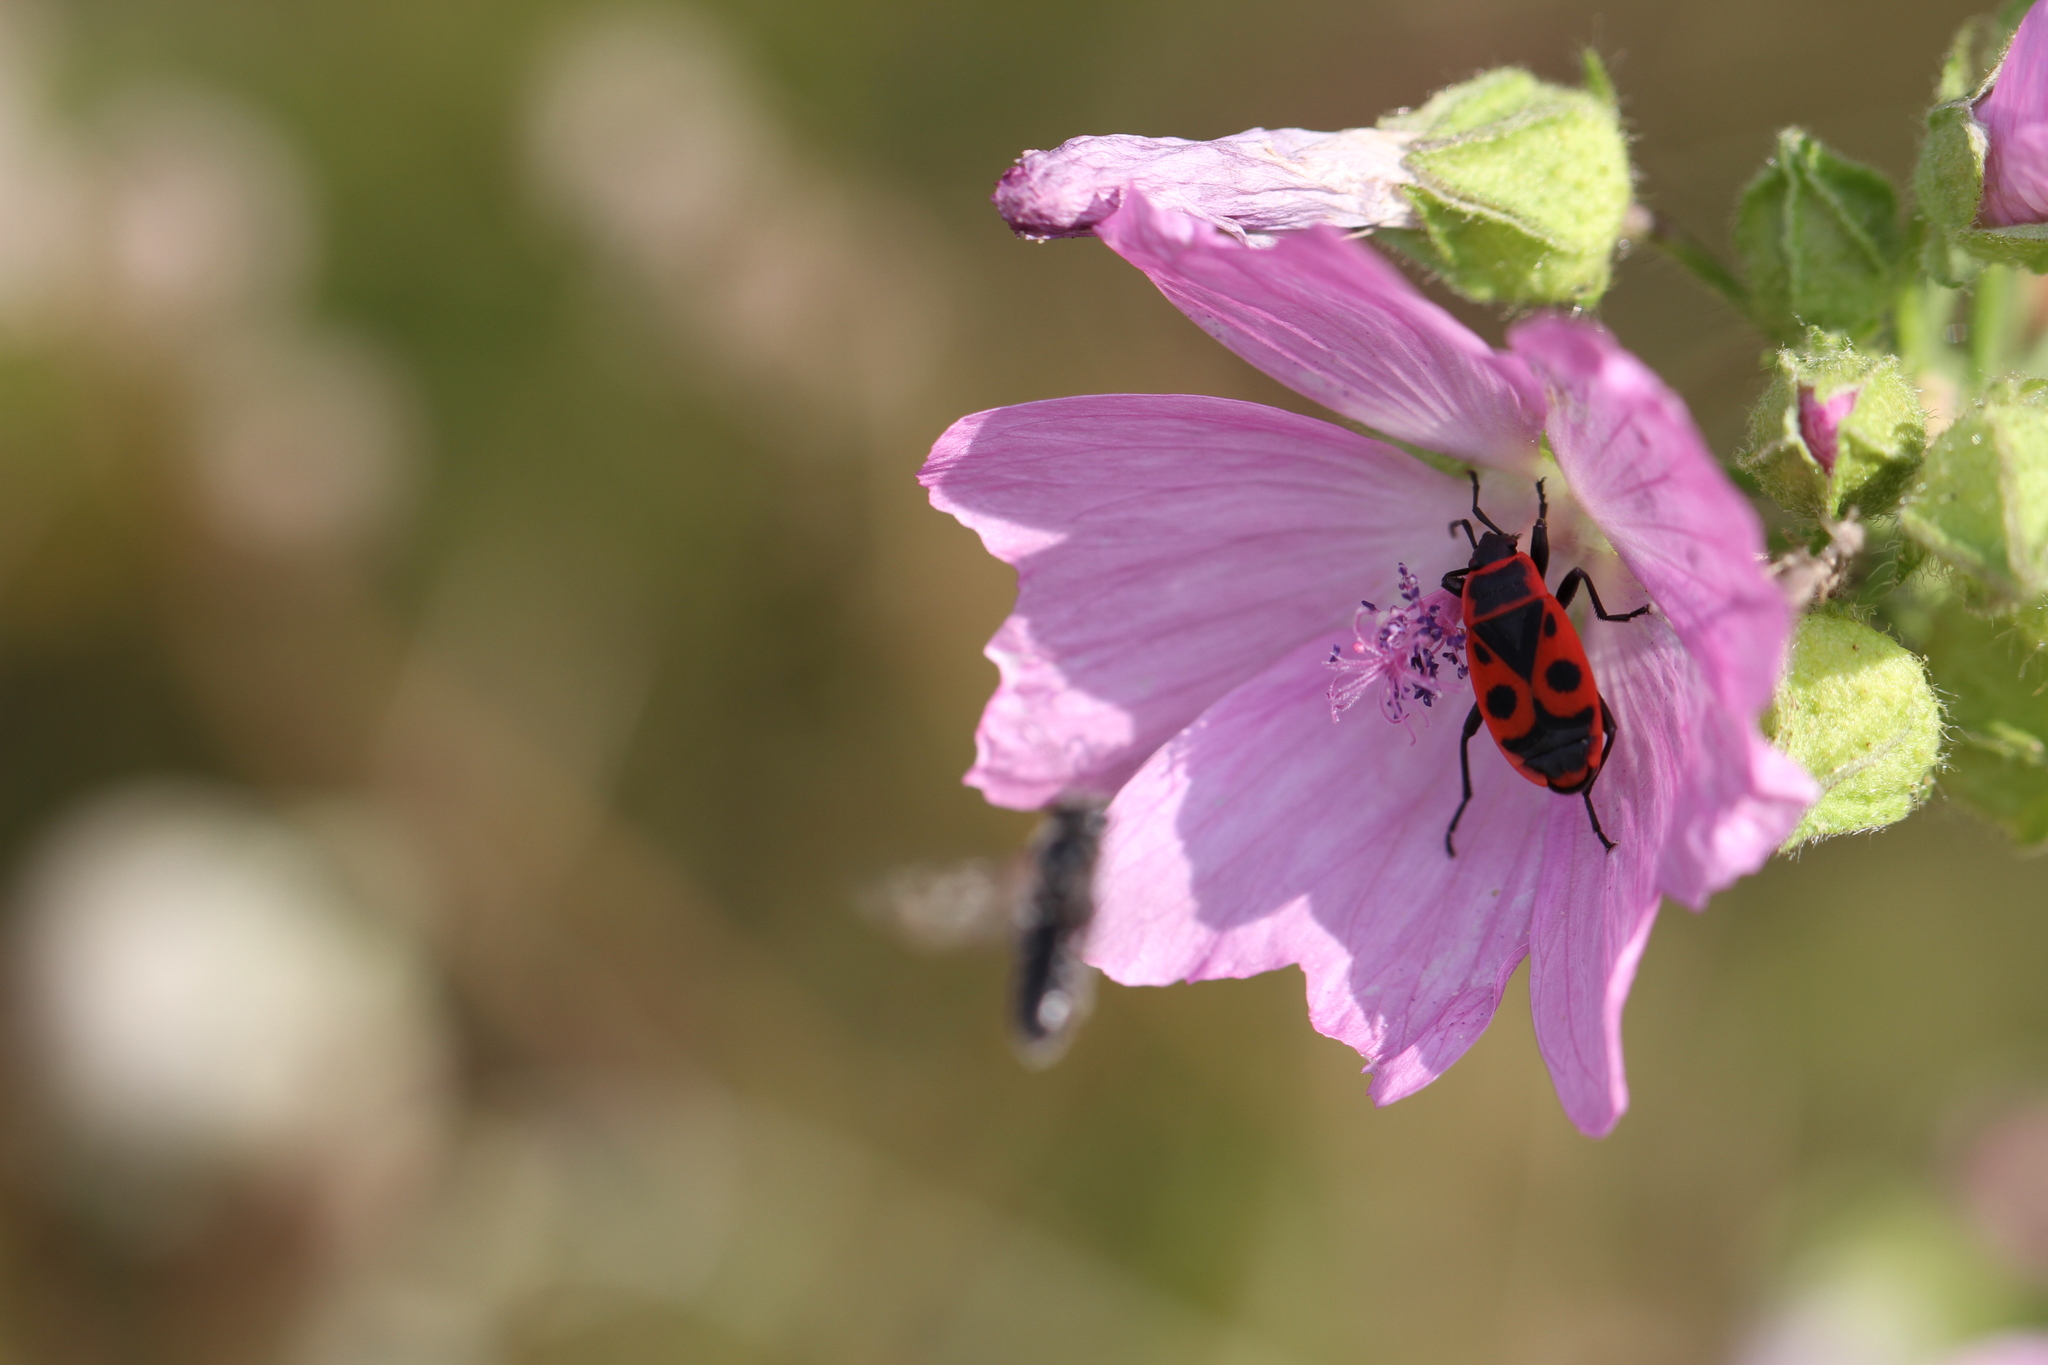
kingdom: Animalia
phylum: Arthropoda
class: Insecta
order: Hemiptera
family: Pyrrhocoridae
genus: Pyrrhocoris
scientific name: Pyrrhocoris apterus
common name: Firebug
